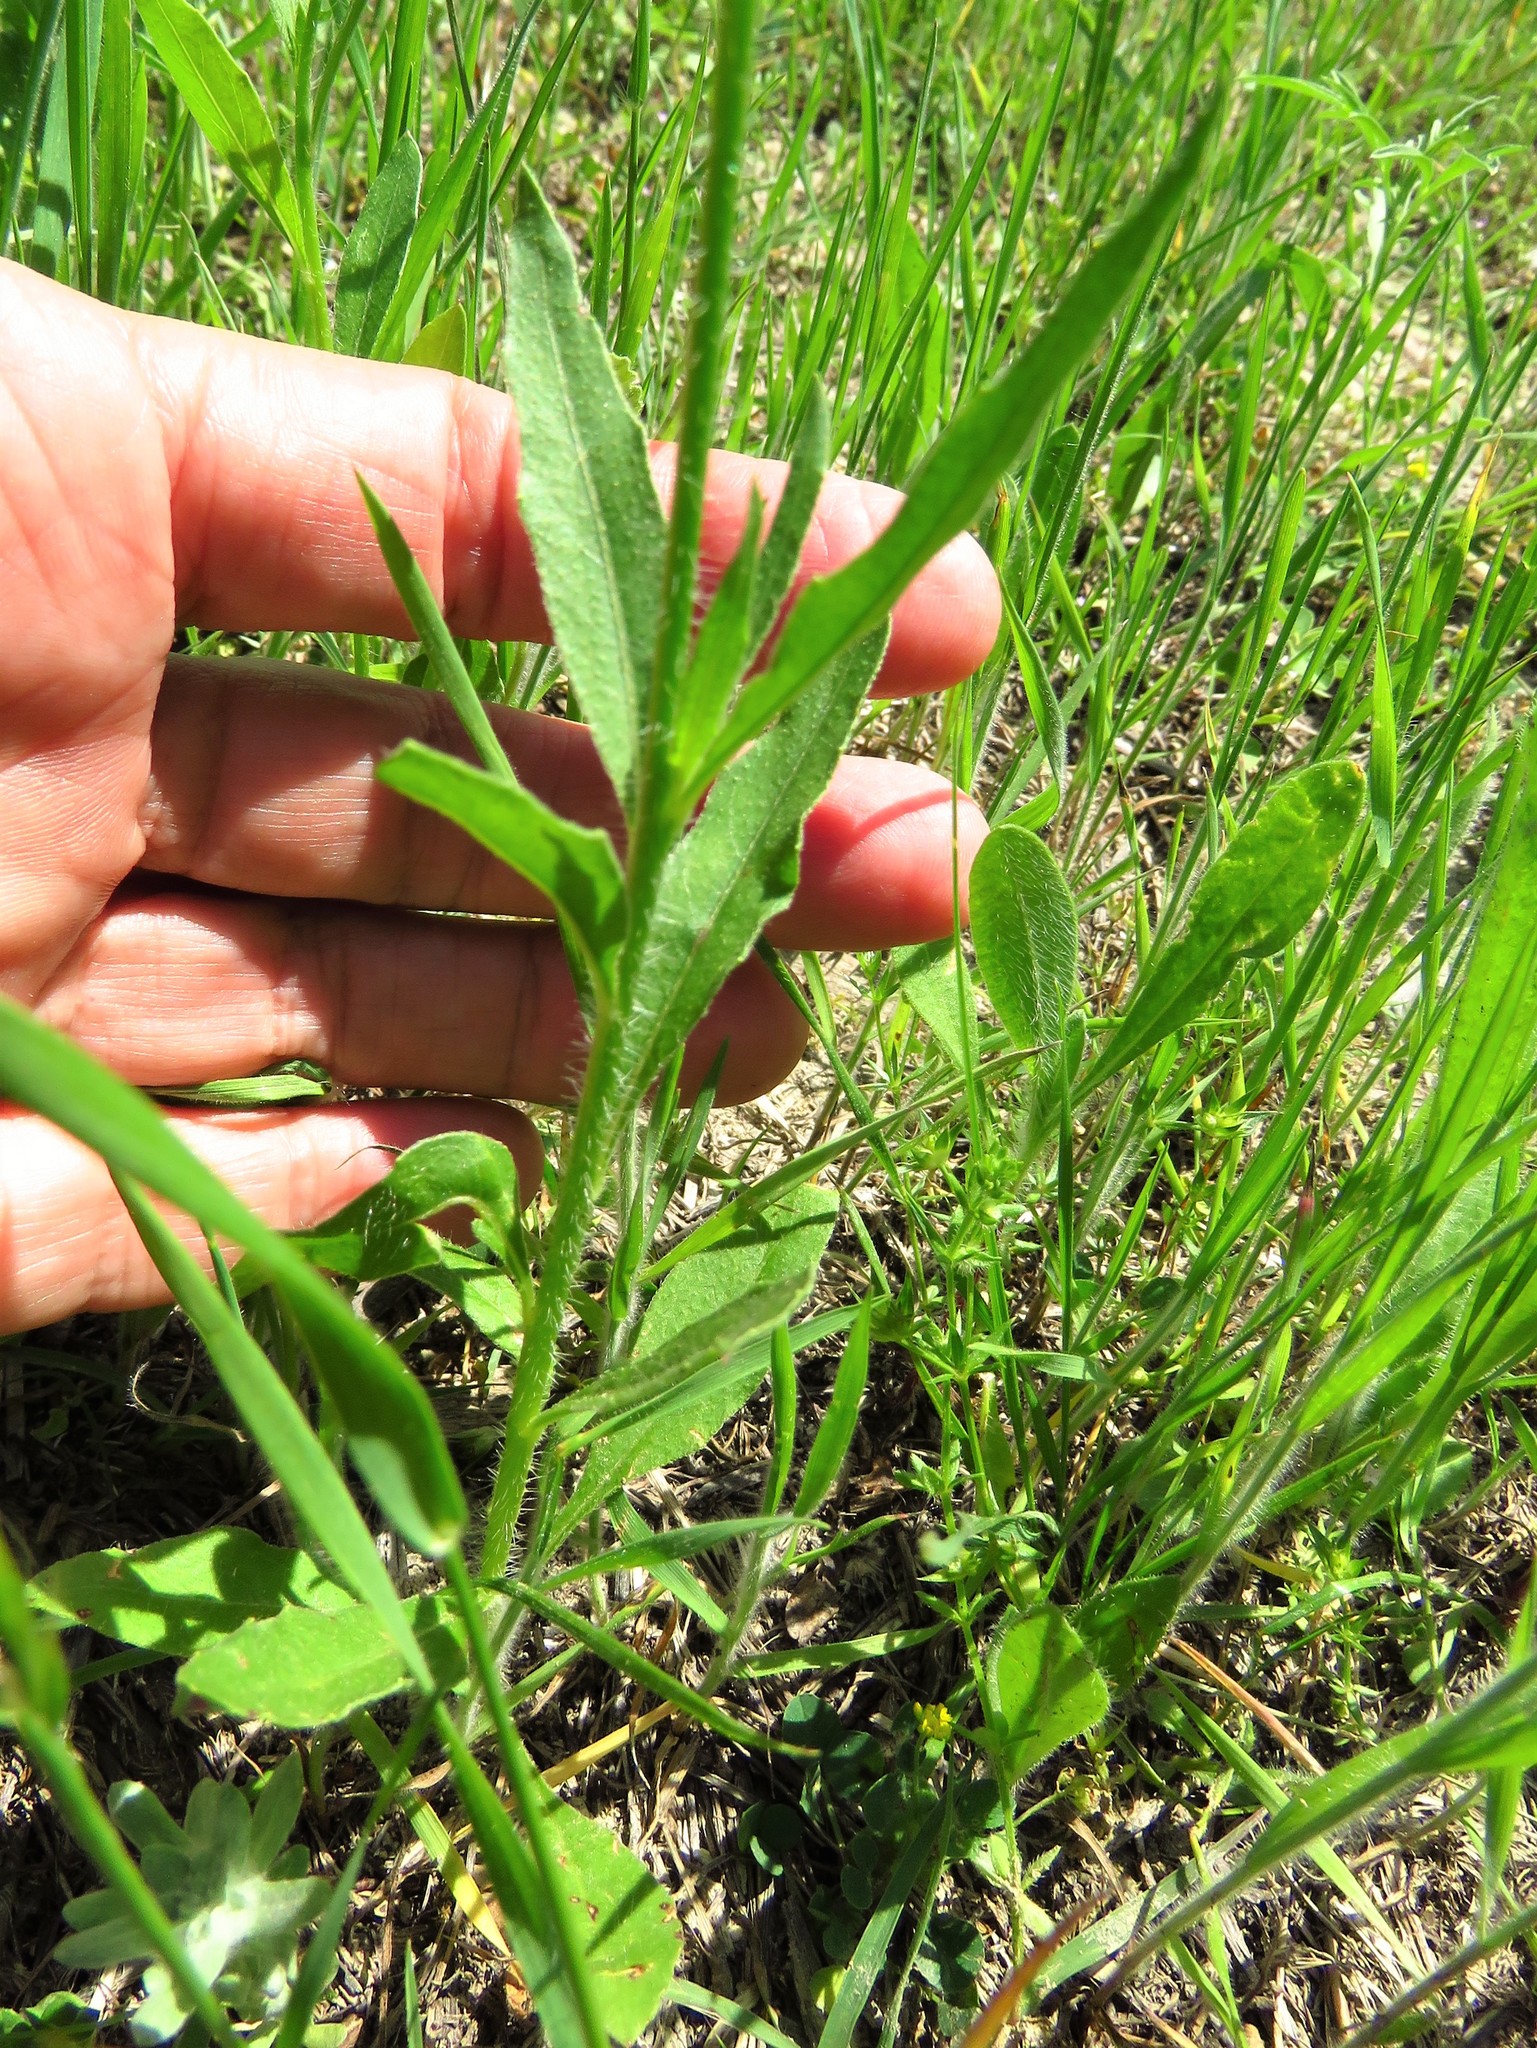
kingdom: Plantae
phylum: Tracheophyta
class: Magnoliopsida
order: Myrtales
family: Onagraceae
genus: Oenothera
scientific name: Oenothera suffulta
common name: Kisses
